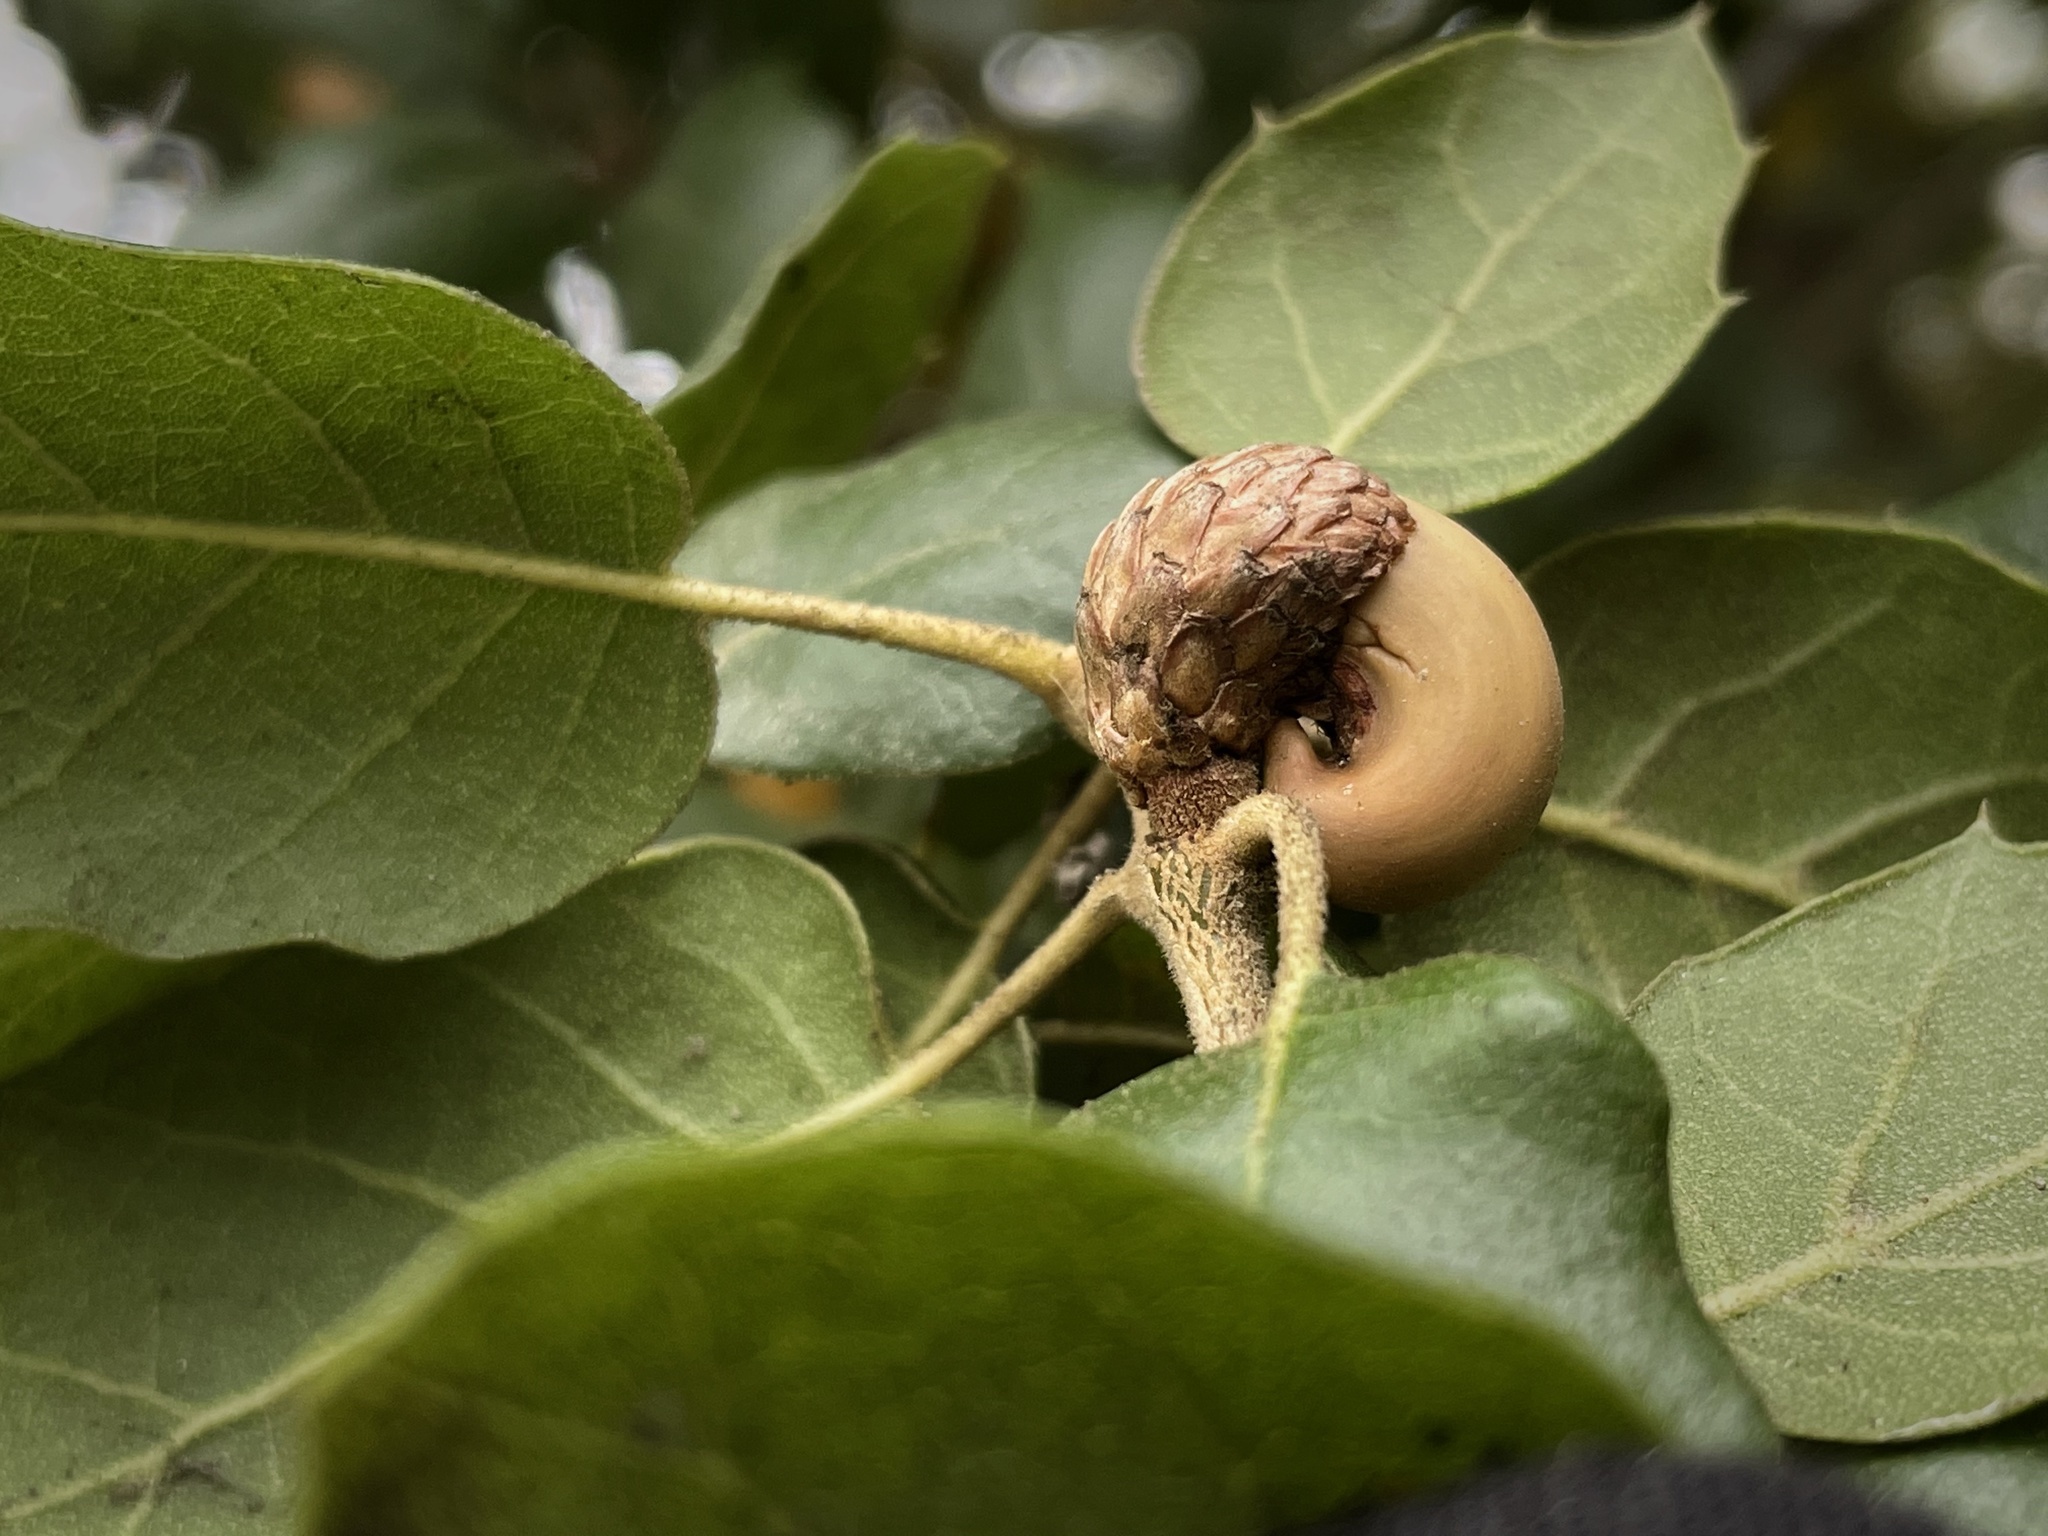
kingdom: Plantae
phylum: Tracheophyta
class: Magnoliopsida
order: Fagales
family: Fagaceae
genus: Quercus
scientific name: Quercus agrifolia
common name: California live oak
